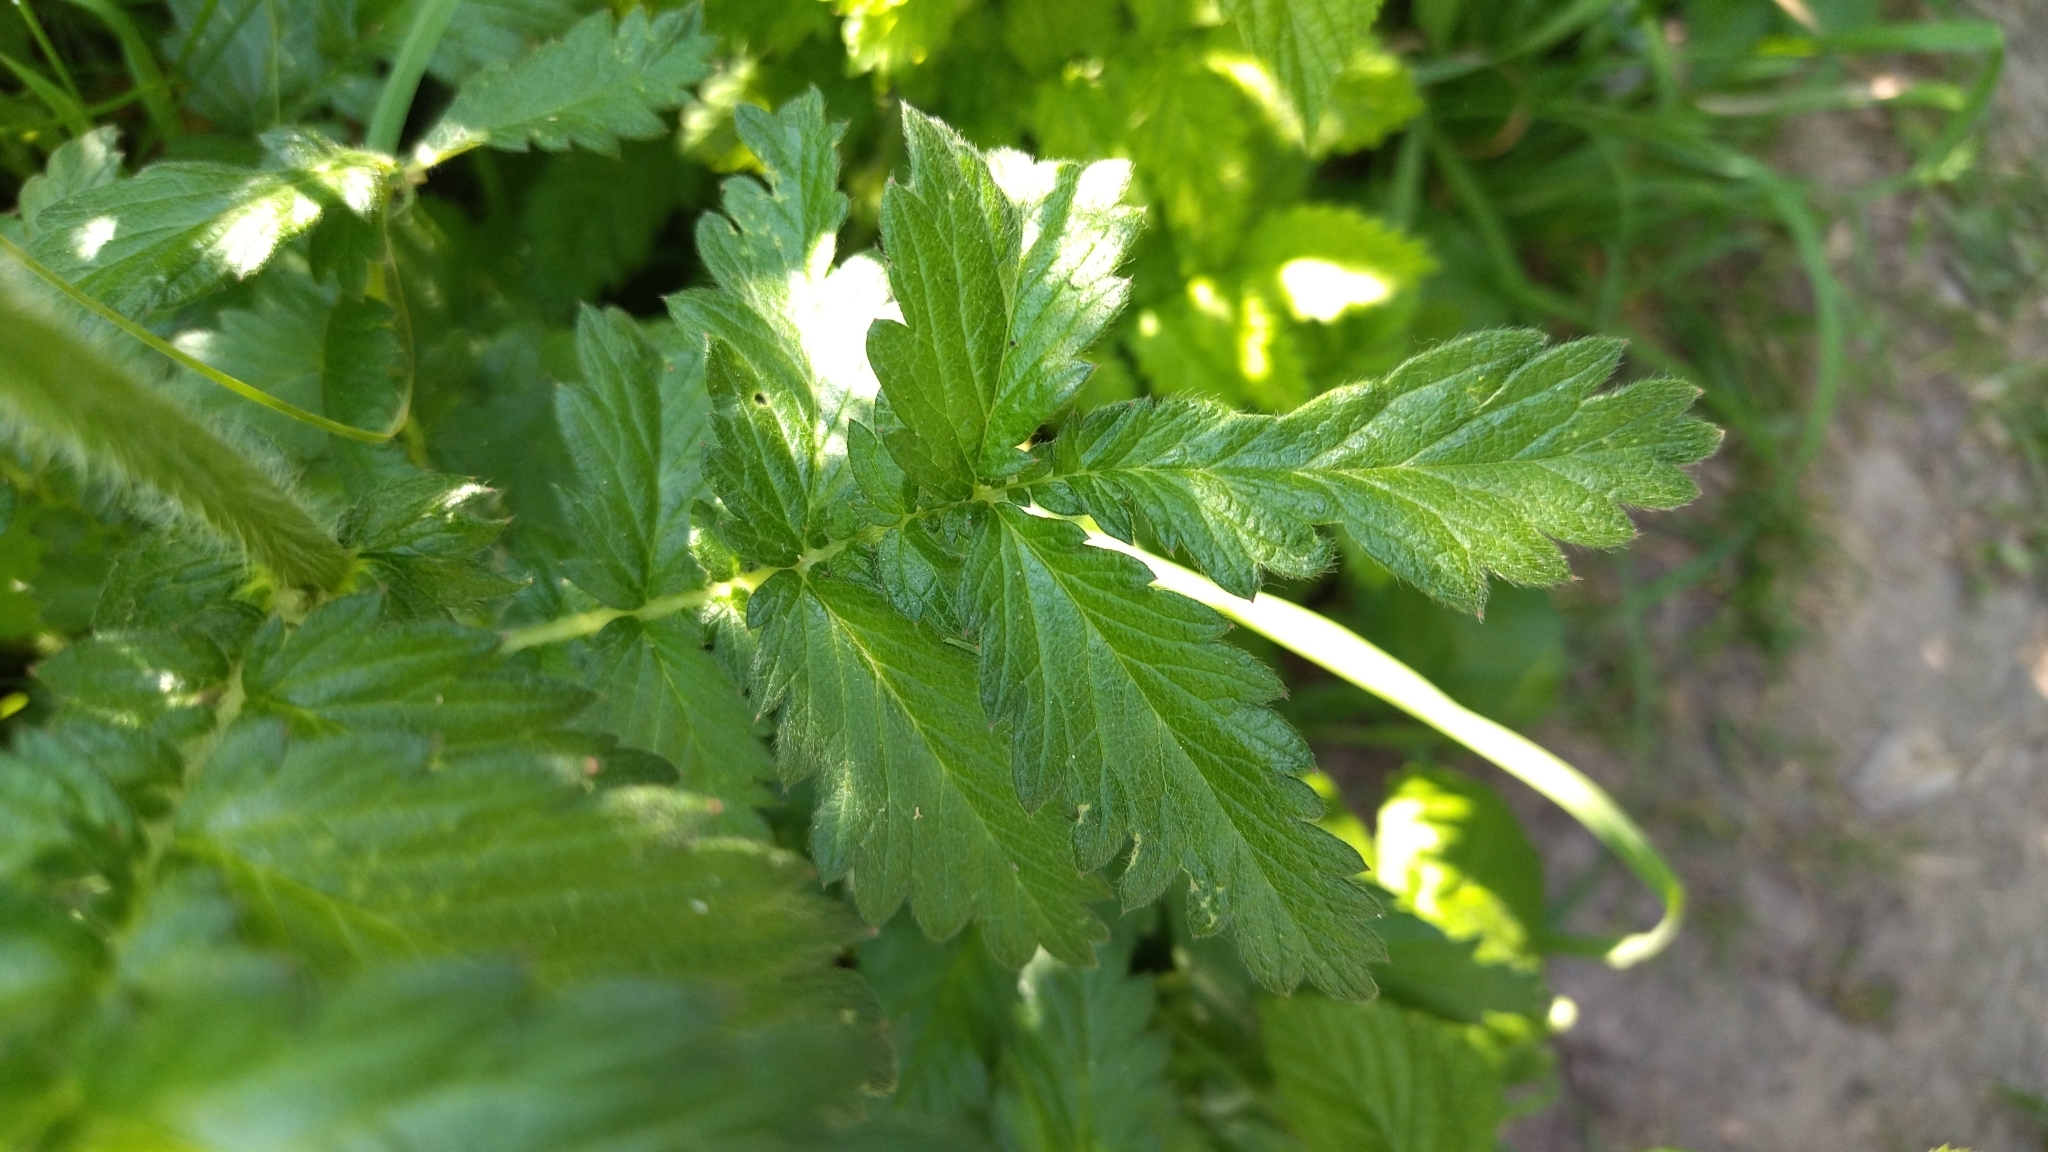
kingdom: Plantae
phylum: Tracheophyta
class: Magnoliopsida
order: Rosales
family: Rosaceae
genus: Agrimonia
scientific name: Agrimonia eupatoria
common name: Agrimony
